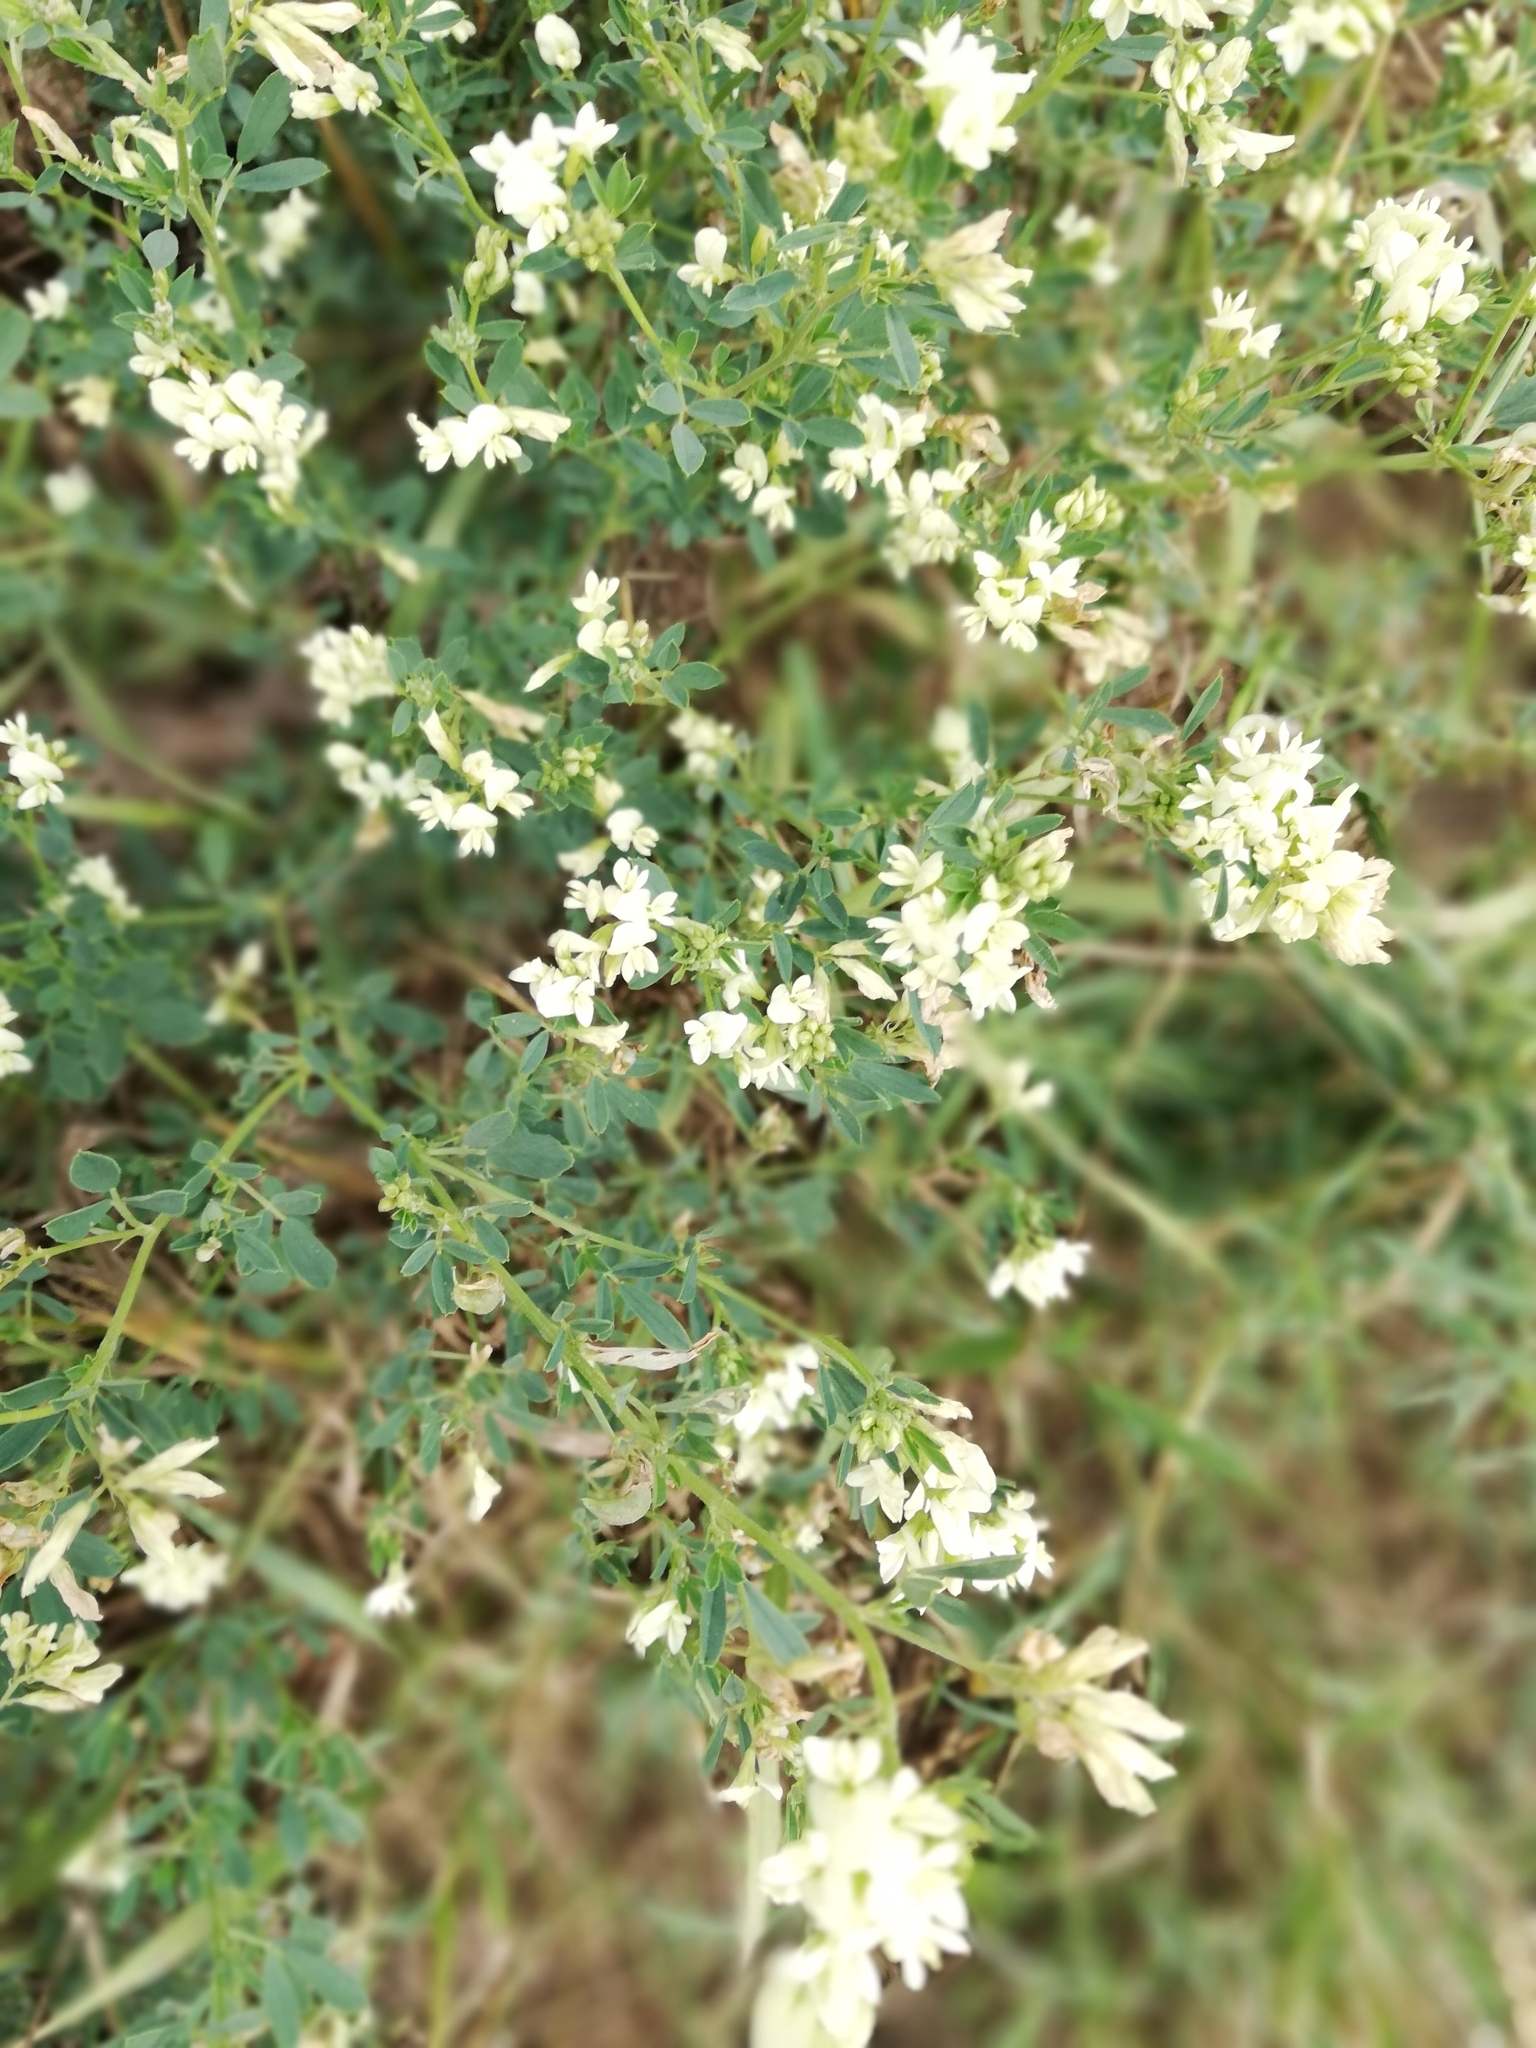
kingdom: Plantae
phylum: Tracheophyta
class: Magnoliopsida
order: Fabales
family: Fabaceae
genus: Medicago
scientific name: Medicago varia
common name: Sand lucerne
